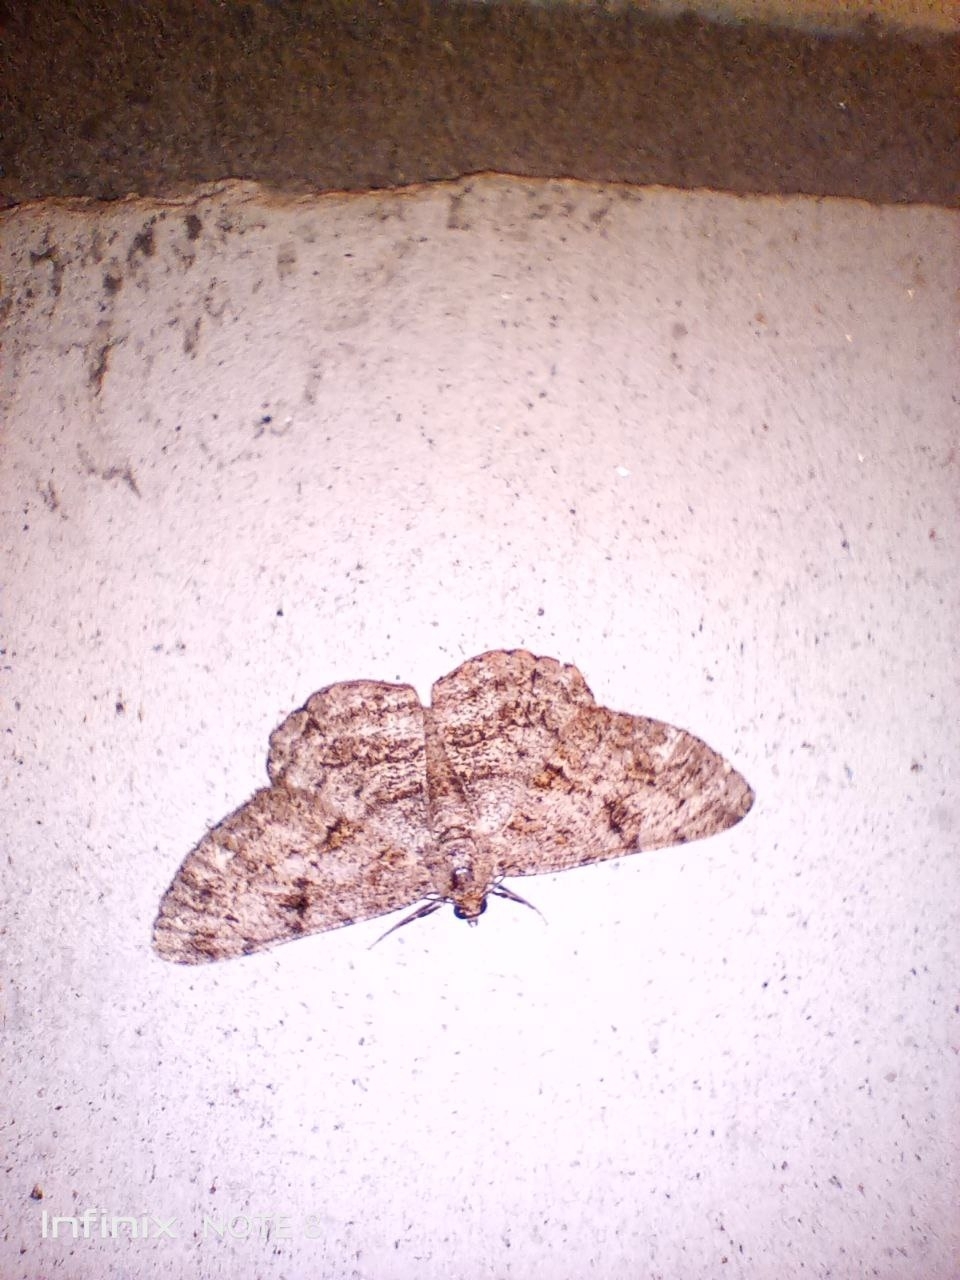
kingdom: Animalia
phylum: Arthropoda
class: Insecta
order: Lepidoptera
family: Geometridae
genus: Peribatodes
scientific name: Peribatodes rhomboidaria
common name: Willow beauty
